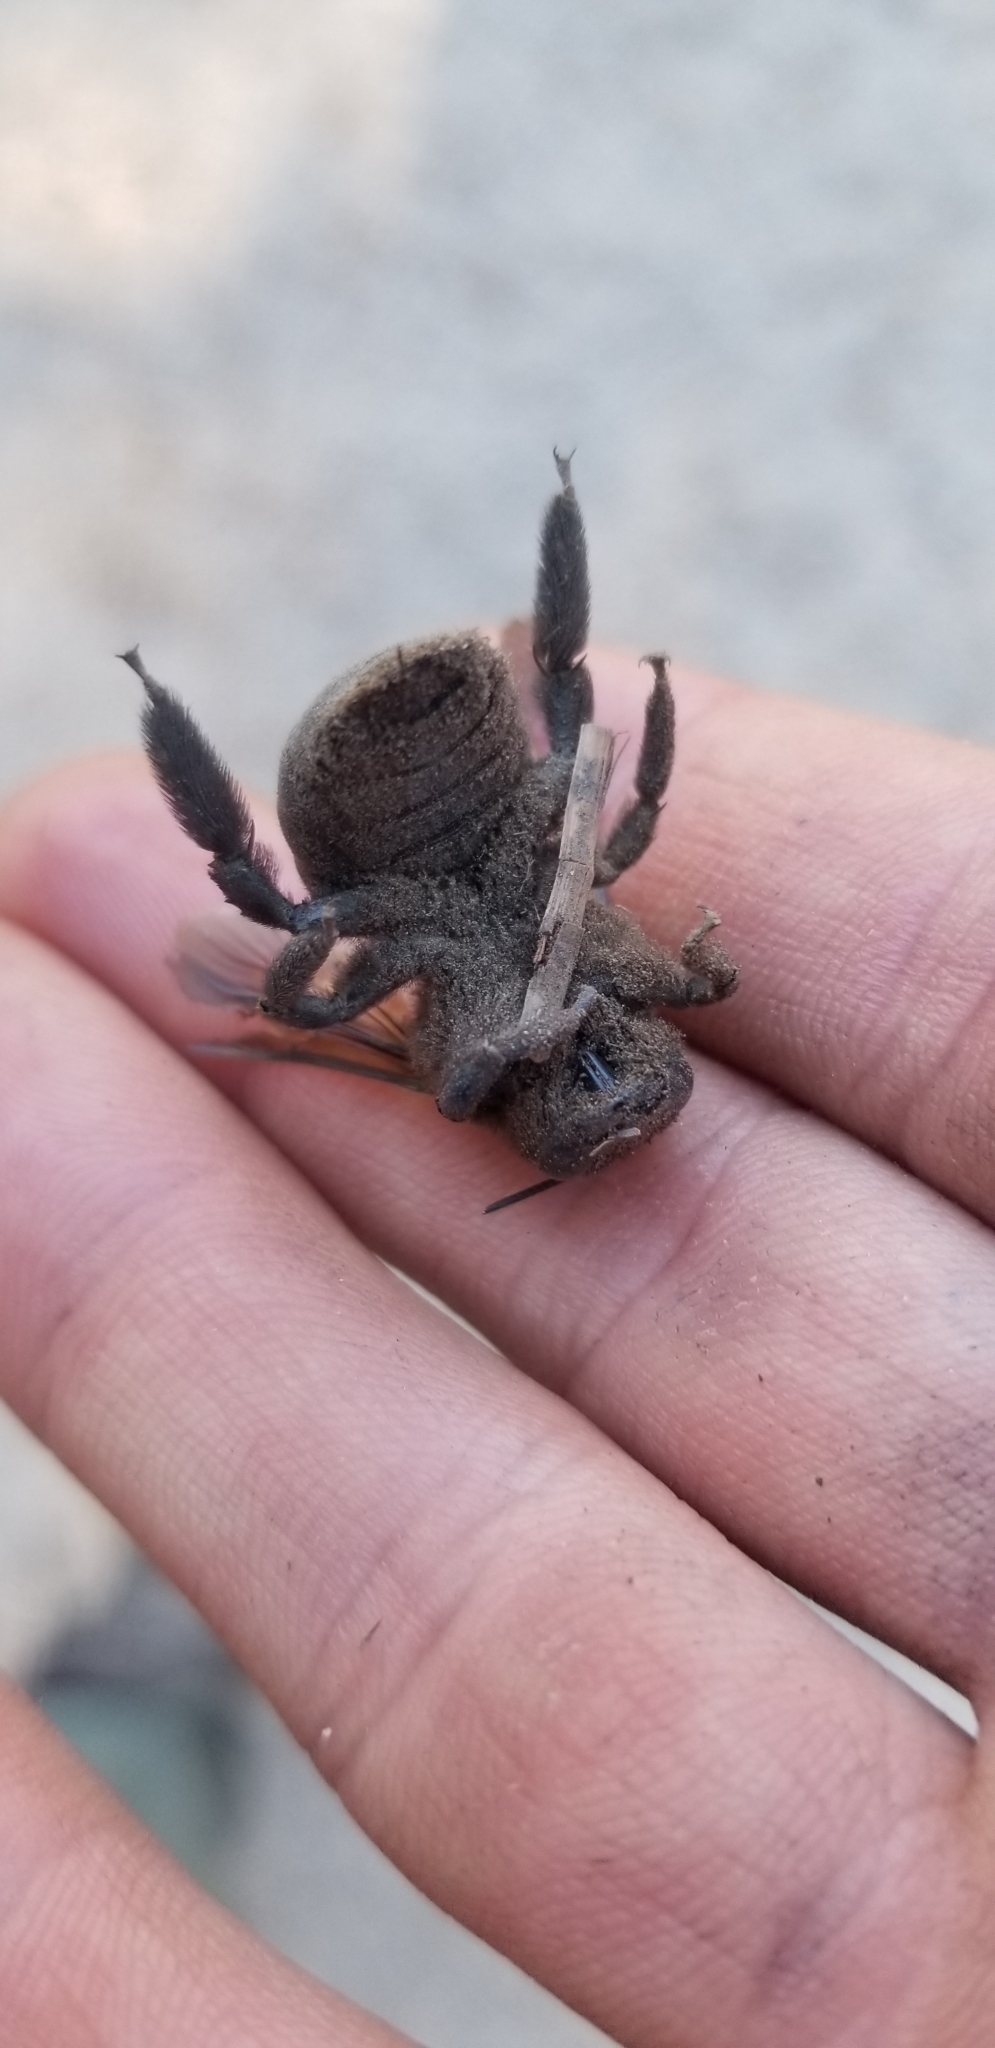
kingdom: Animalia
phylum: Arthropoda
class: Insecta
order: Hymenoptera
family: Apidae
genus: Xylocopa
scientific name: Xylocopa californica
